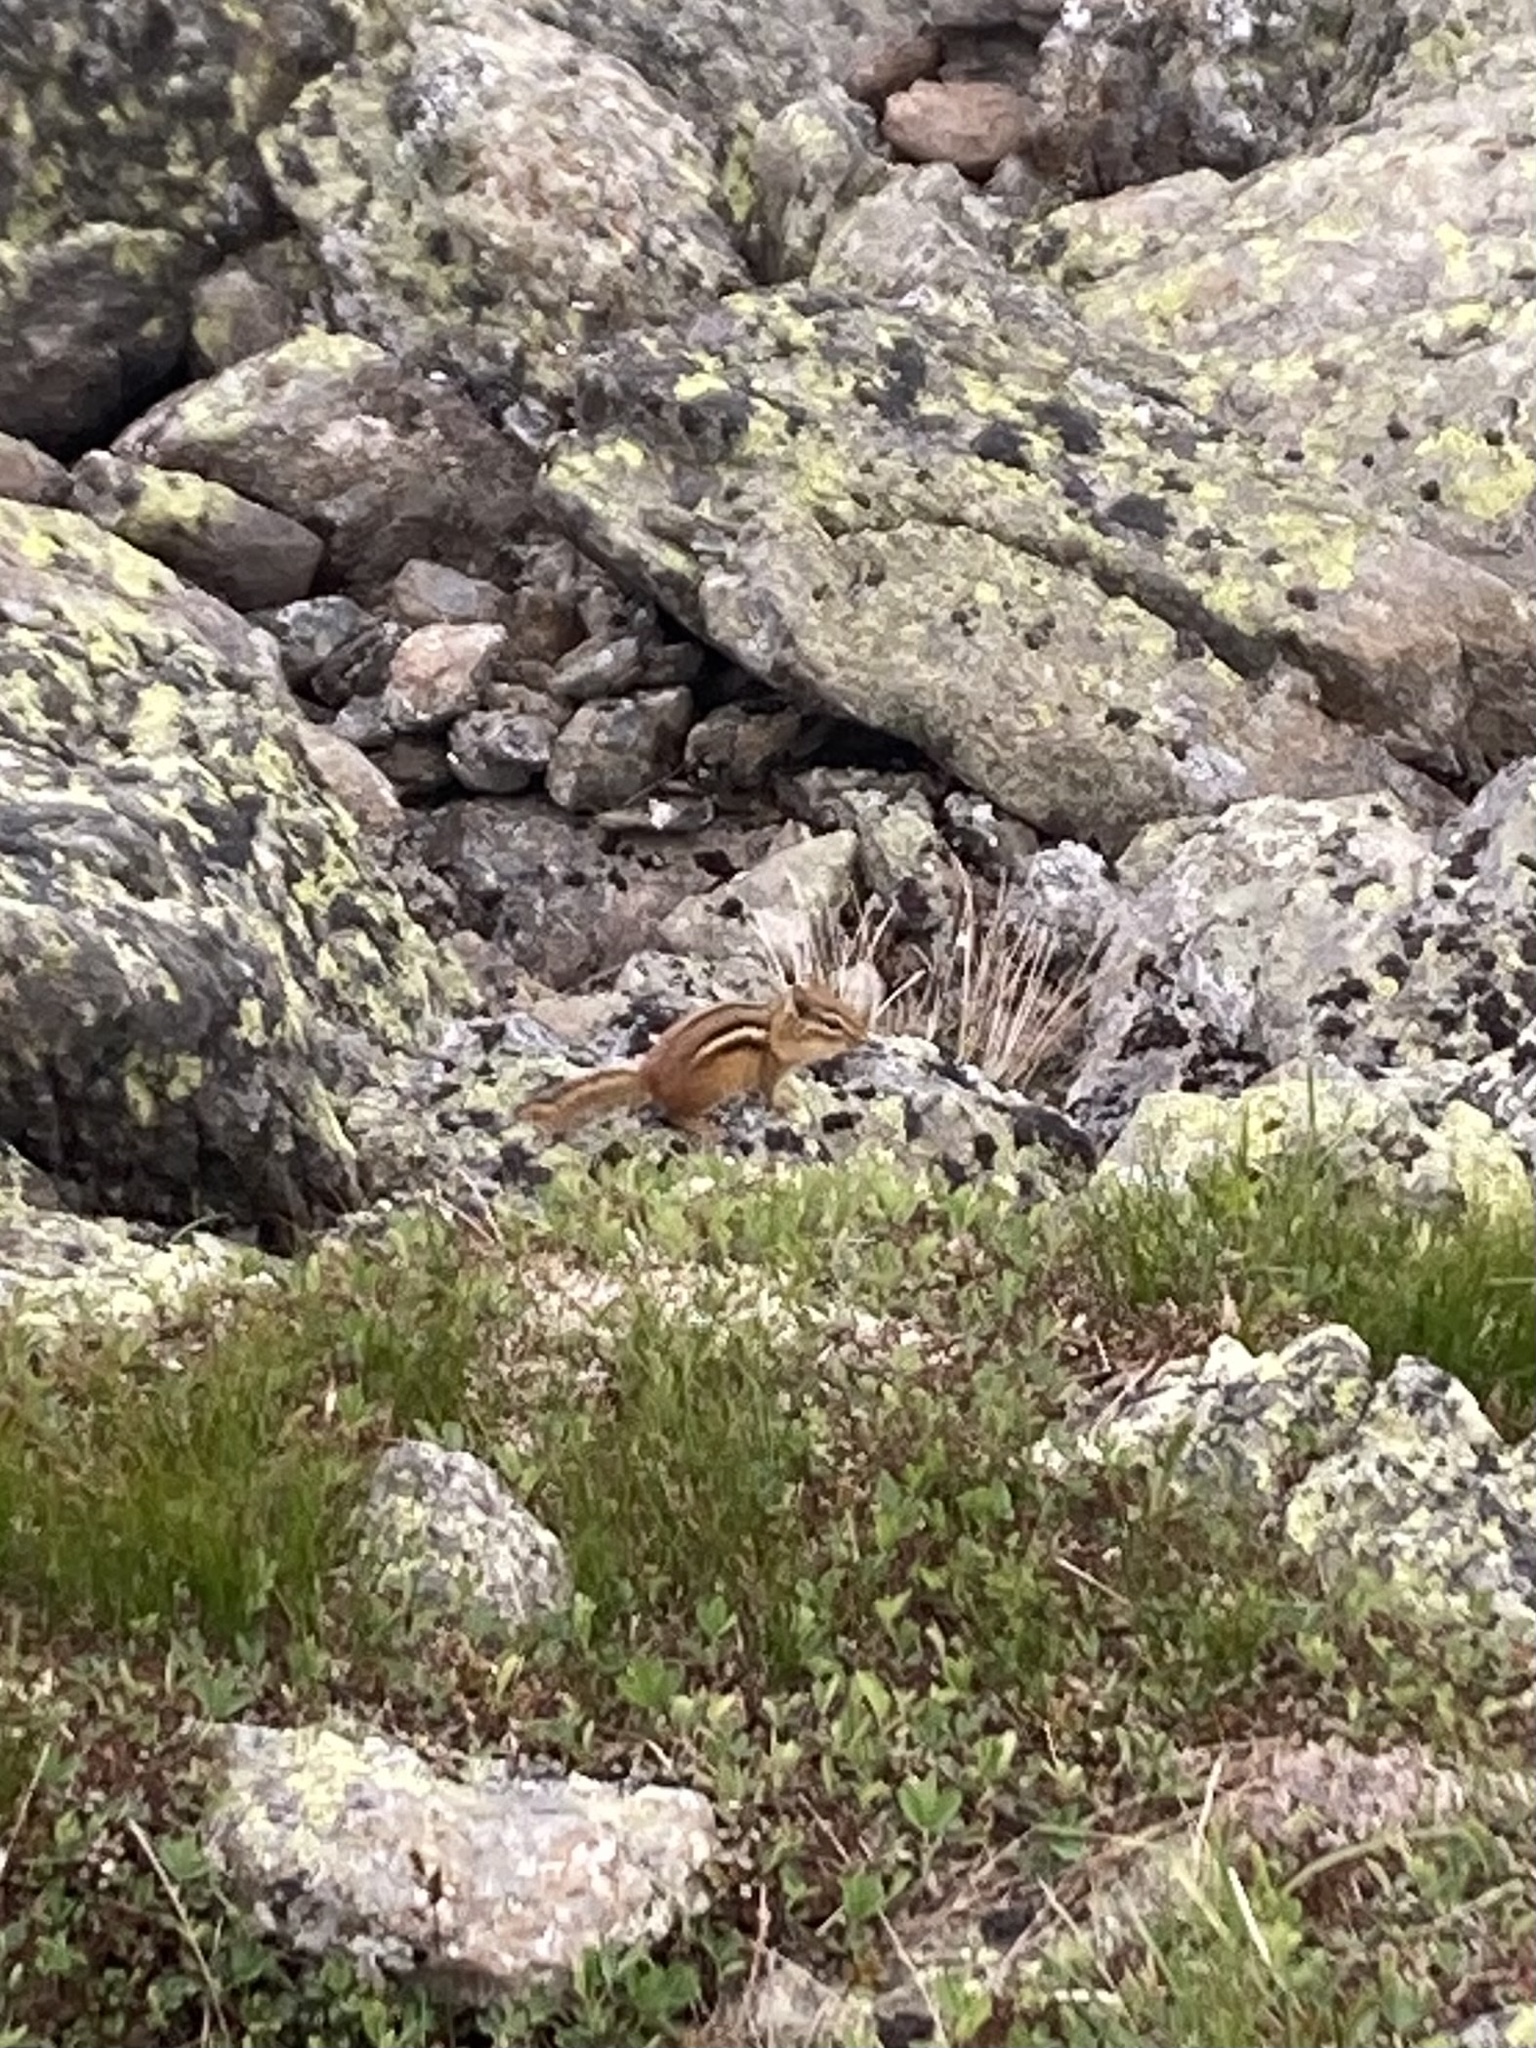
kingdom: Animalia
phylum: Chordata
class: Mammalia
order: Rodentia
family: Sciuridae
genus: Tamias
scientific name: Tamias striatus
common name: Eastern chipmunk
